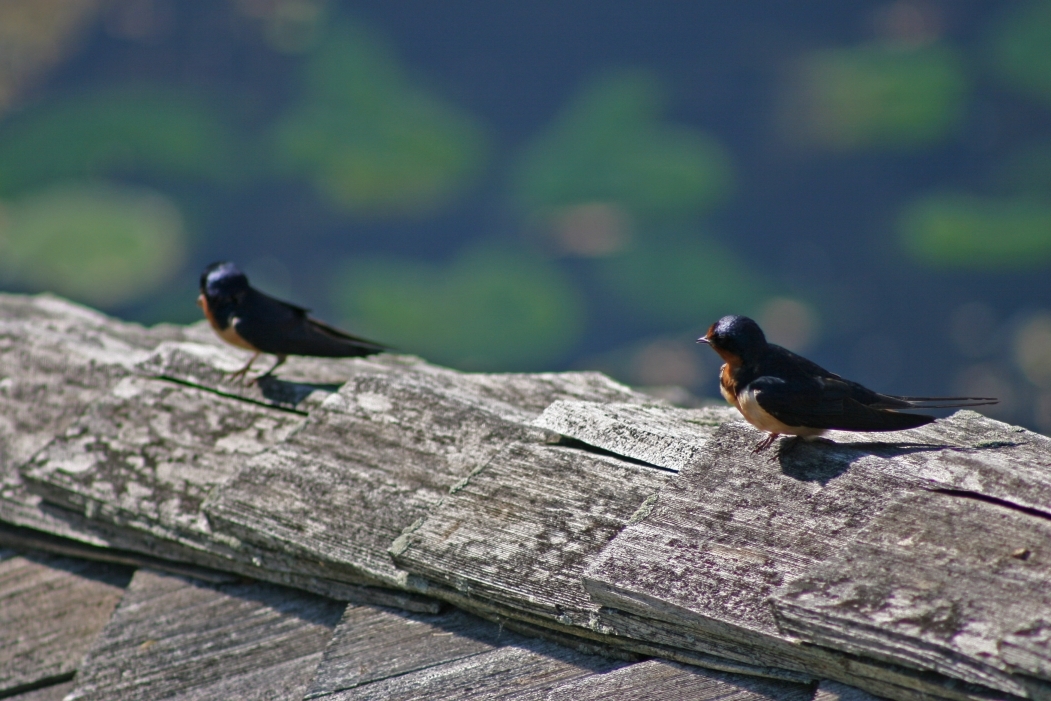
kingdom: Animalia
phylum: Chordata
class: Aves
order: Passeriformes
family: Hirundinidae
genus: Hirundo
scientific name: Hirundo rustica
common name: Barn swallow
